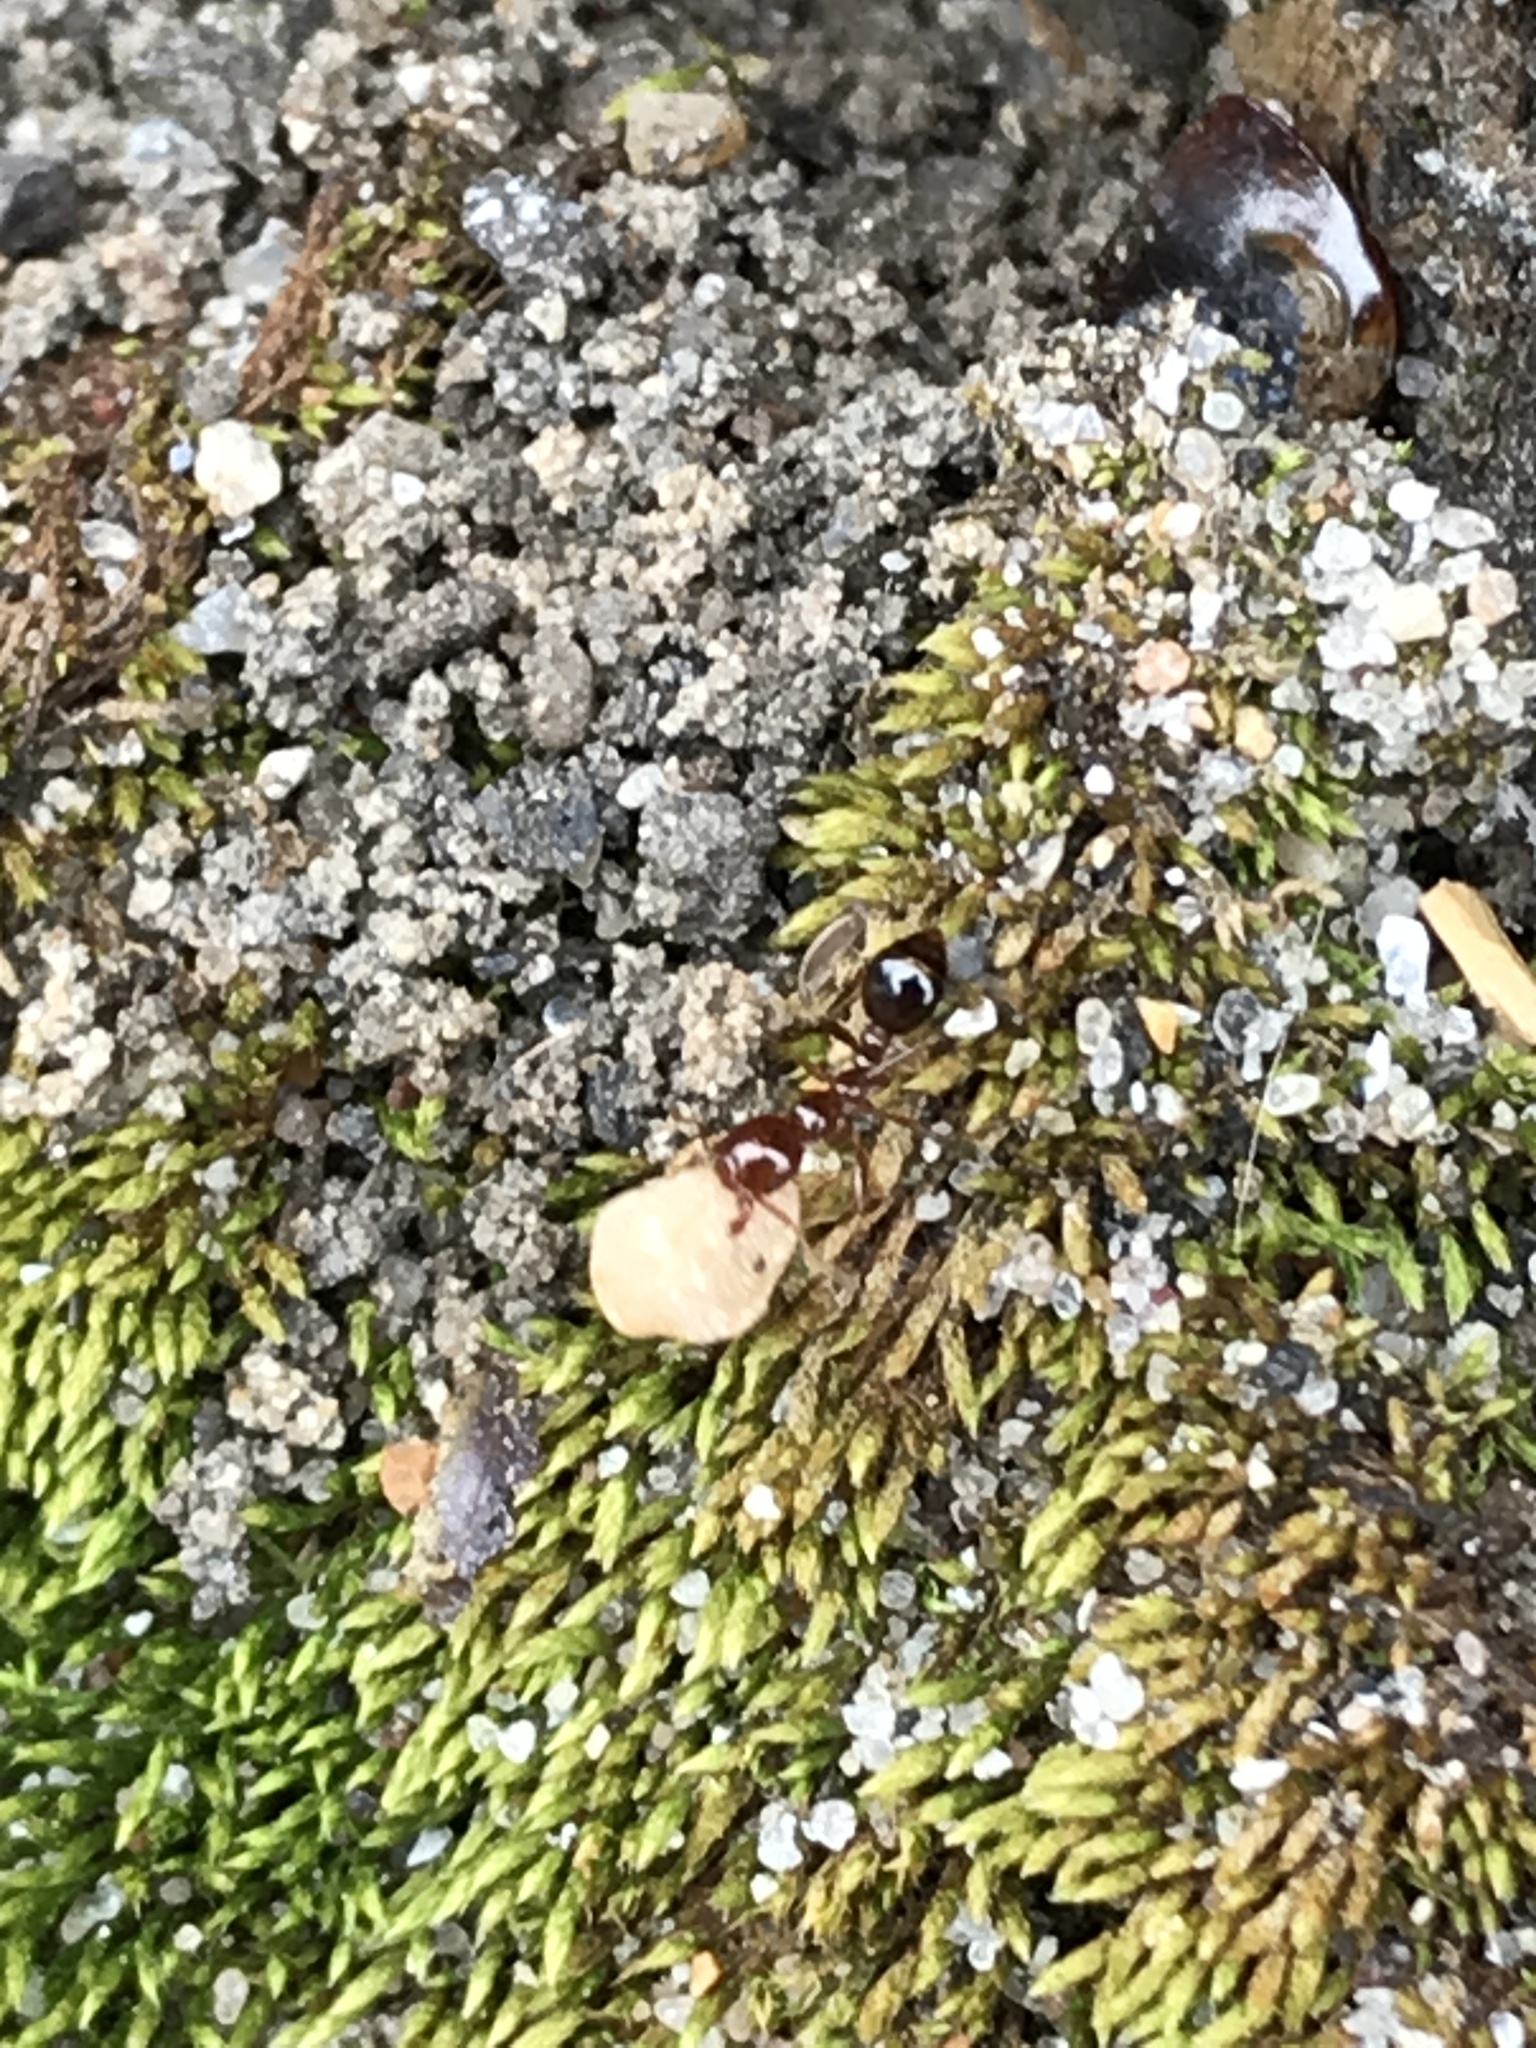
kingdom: Animalia
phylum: Arthropoda
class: Insecta
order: Hymenoptera
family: Formicidae
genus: Solenopsis
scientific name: Solenopsis invicta
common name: Red imported fire ant
